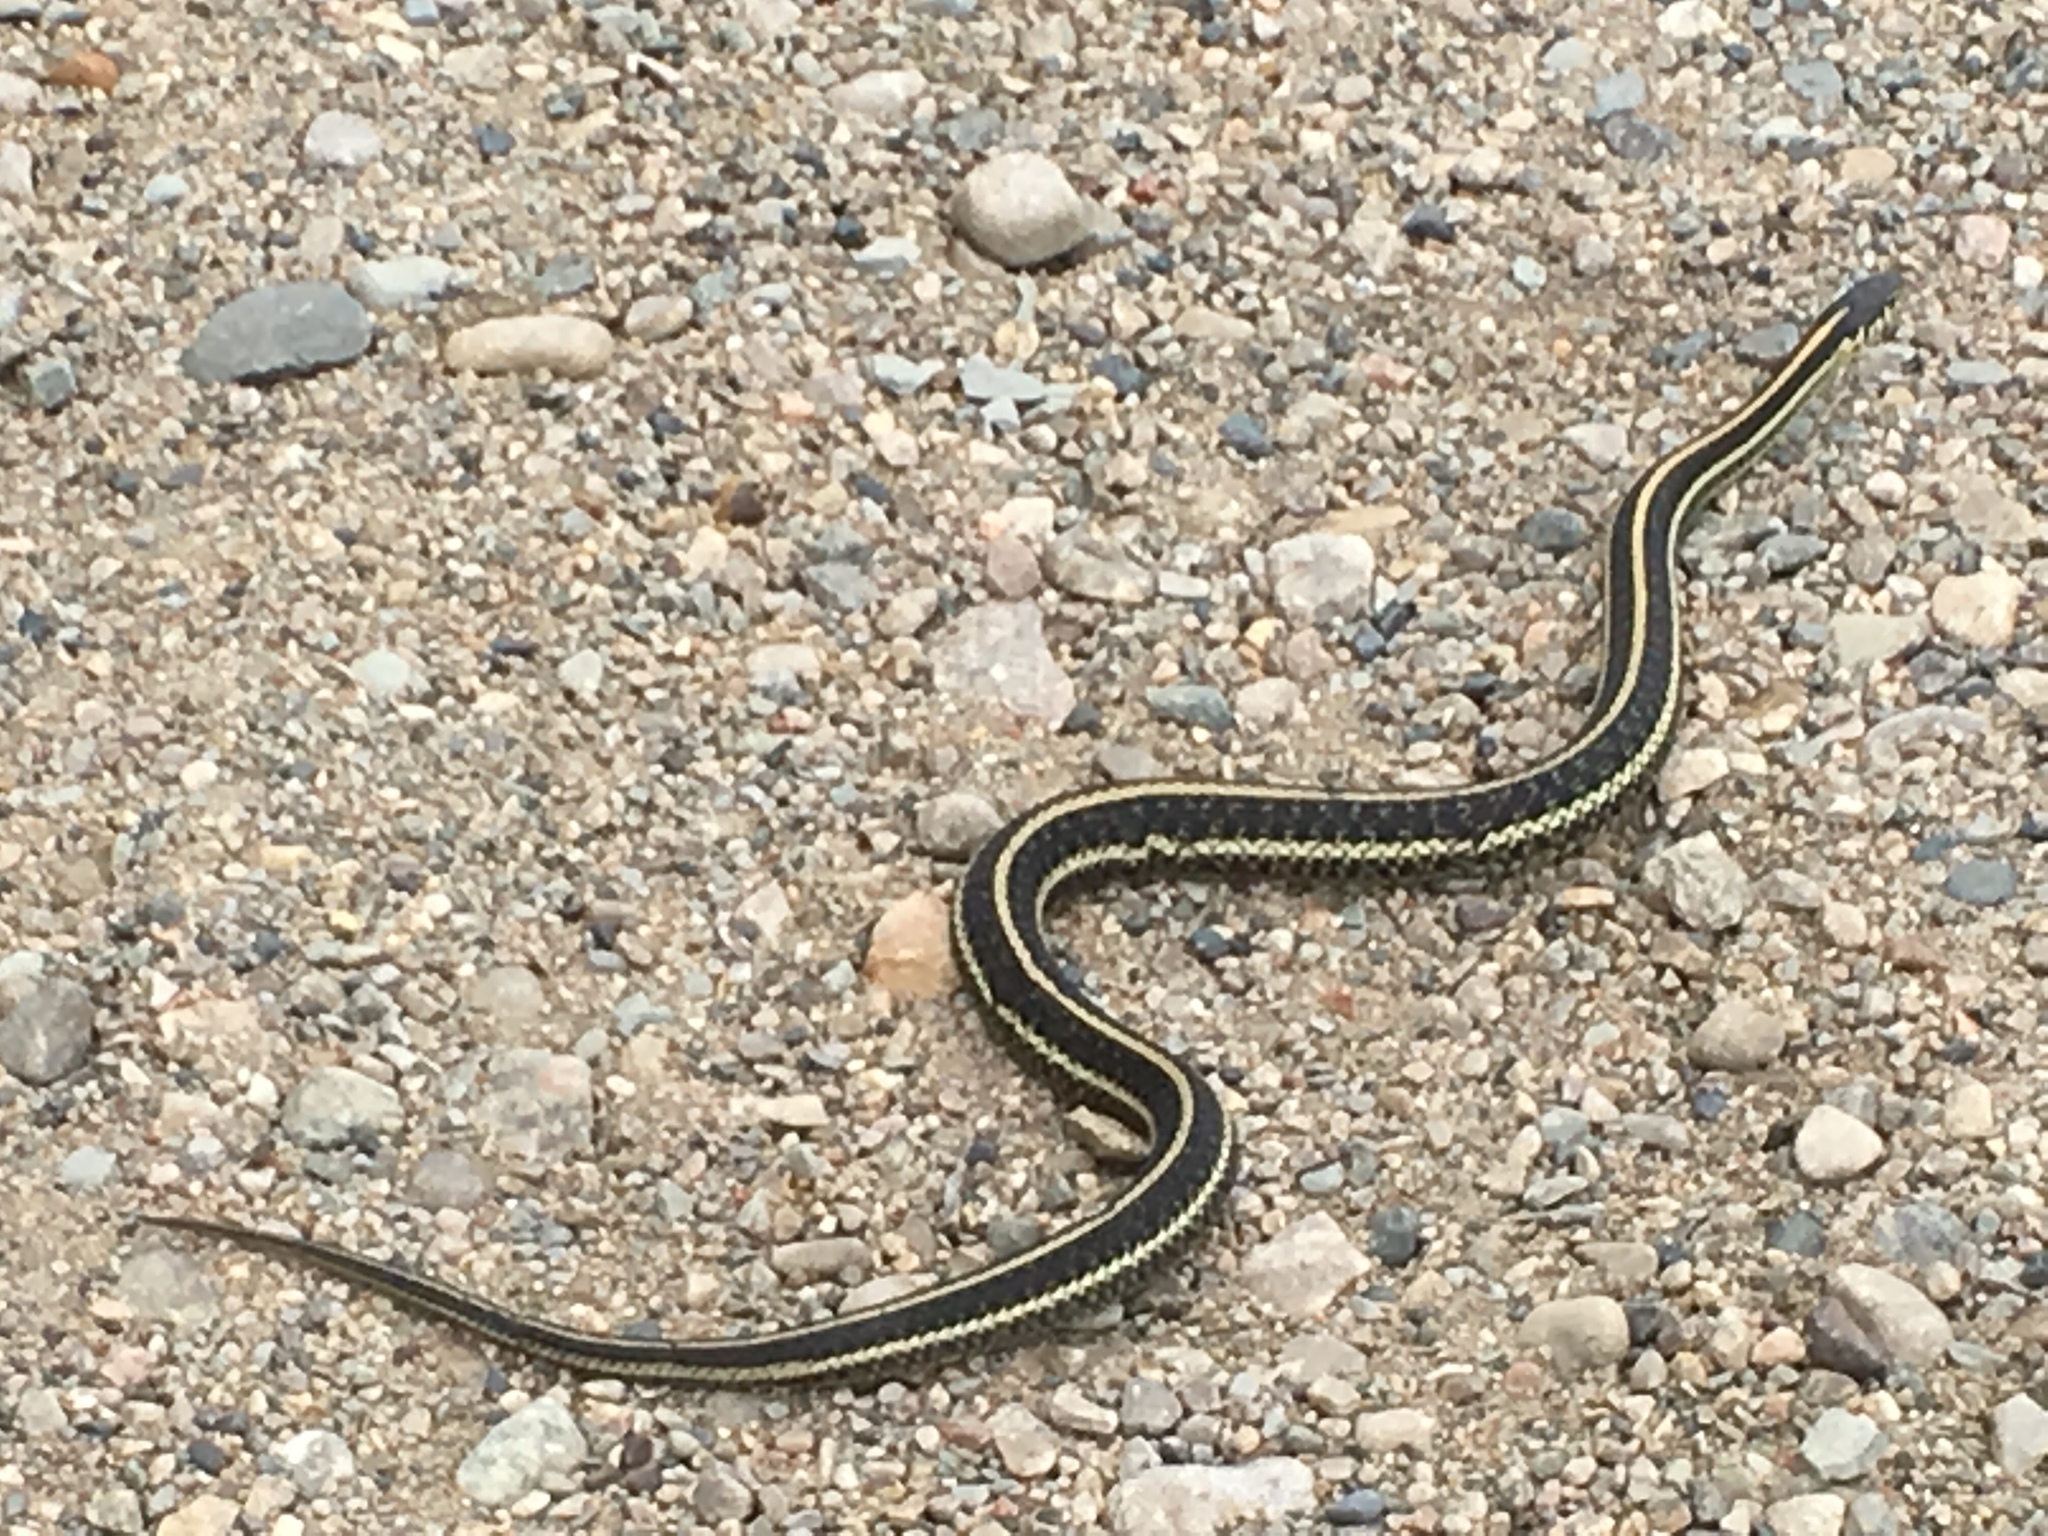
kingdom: Animalia
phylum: Chordata
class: Squamata
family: Colubridae
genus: Thamnophis
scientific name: Thamnophis radix
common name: Plains garter snake
